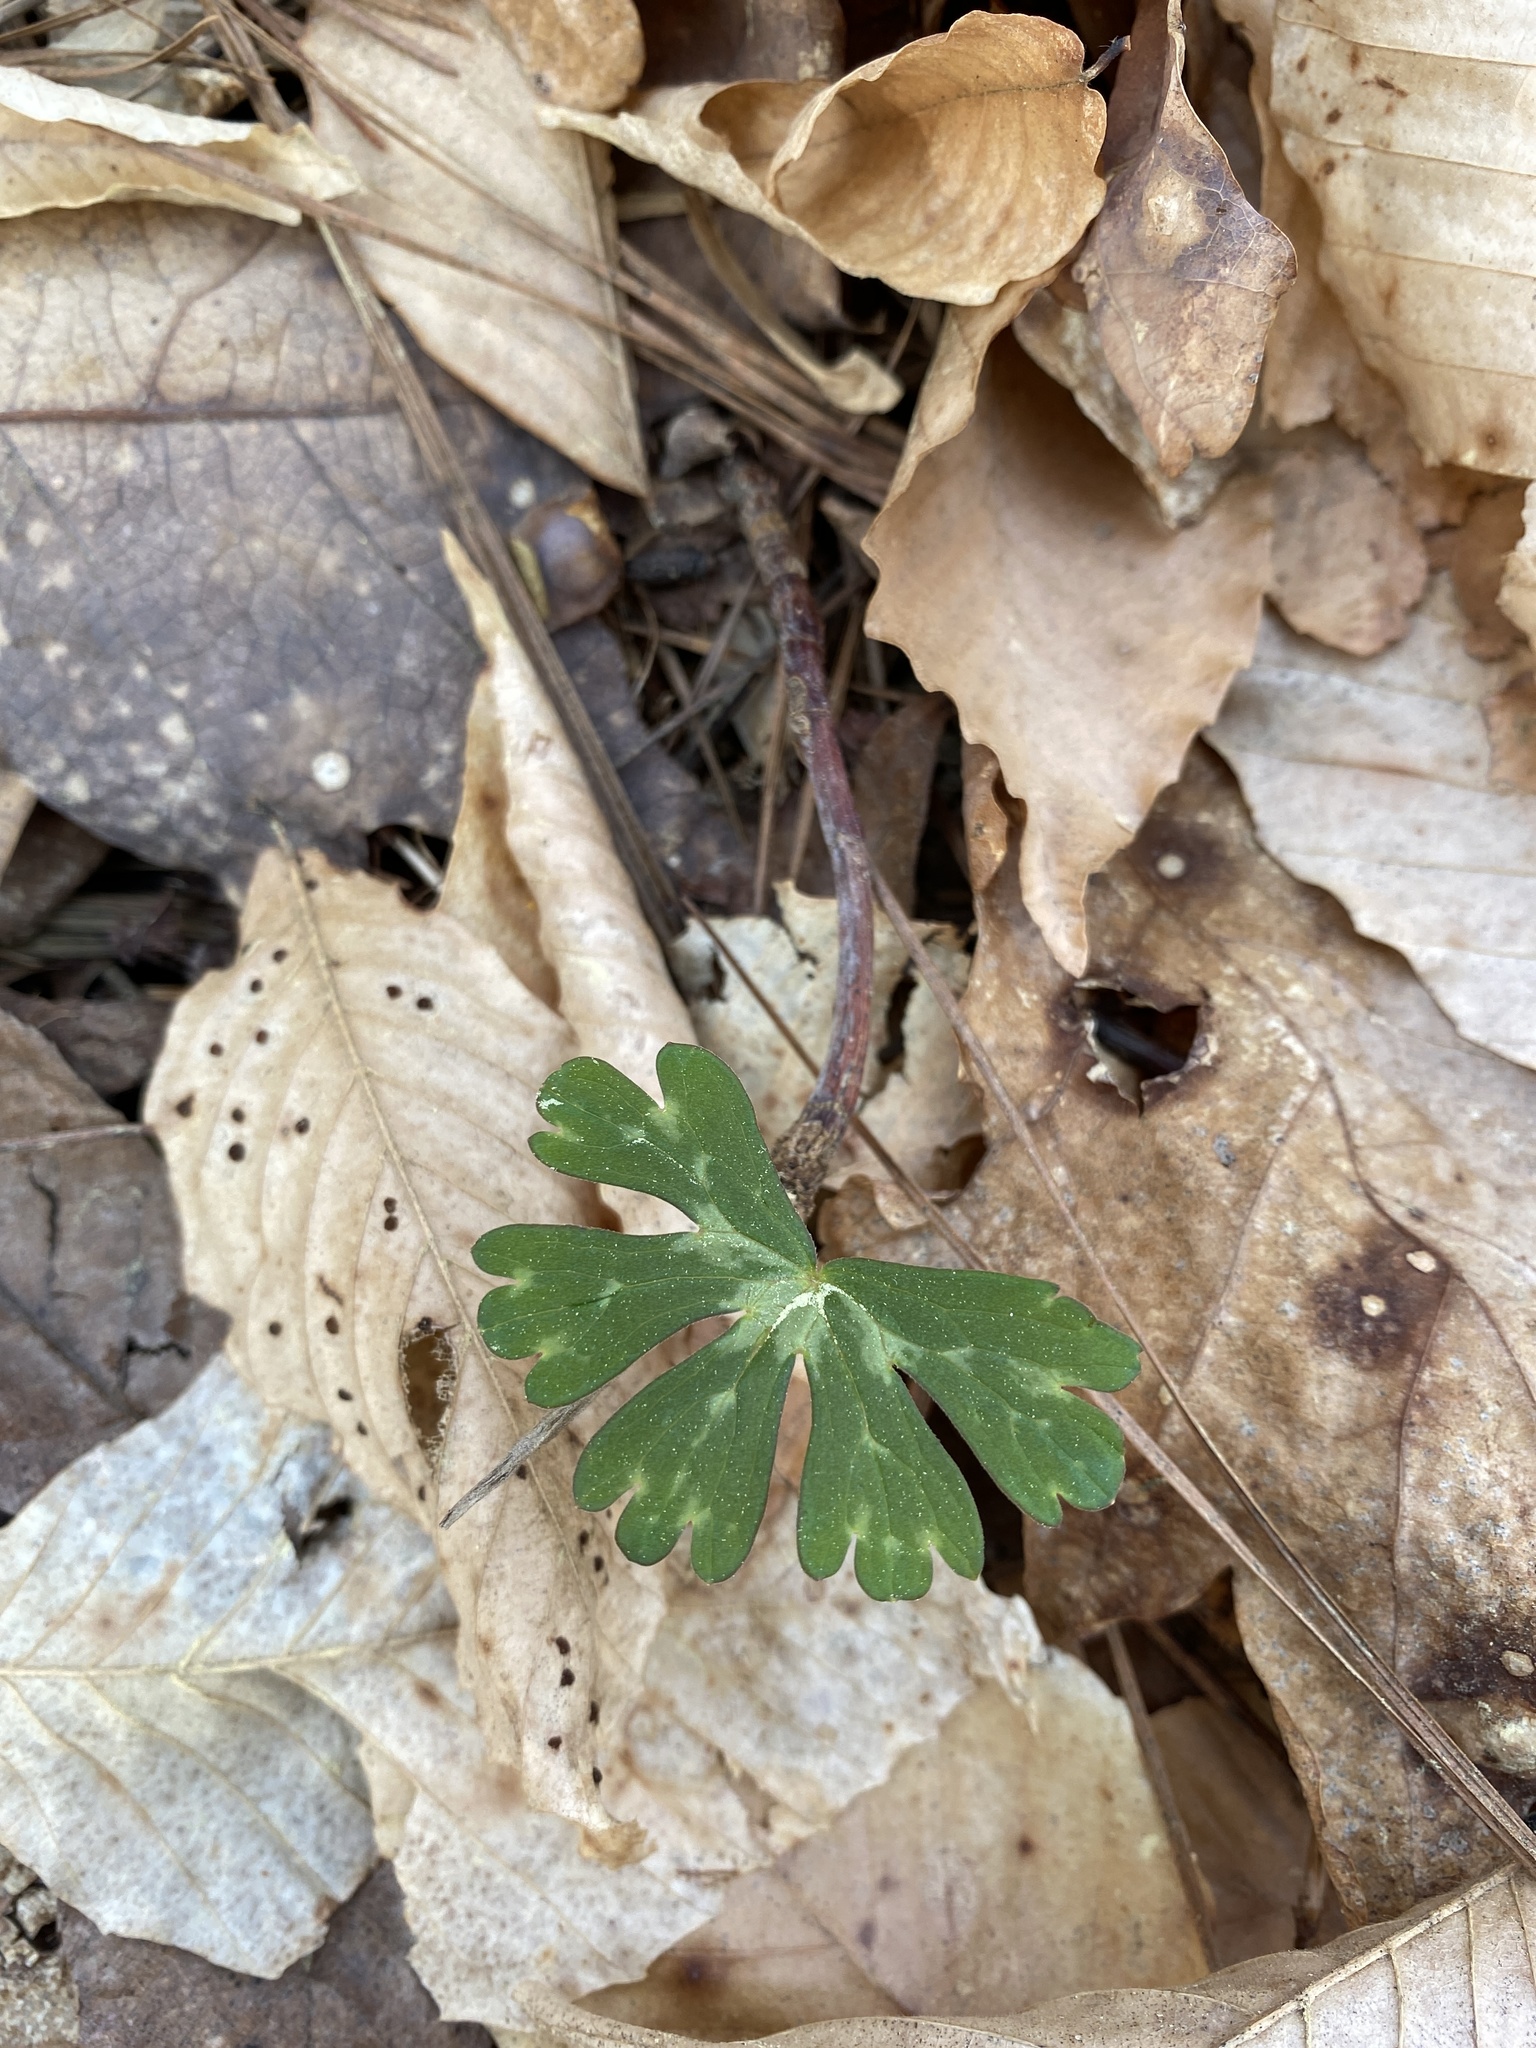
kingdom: Plantae
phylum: Tracheophyta
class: Magnoliopsida
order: Geraniales
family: Geraniaceae
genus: Geranium
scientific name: Geranium maculatum
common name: Spotted geranium
